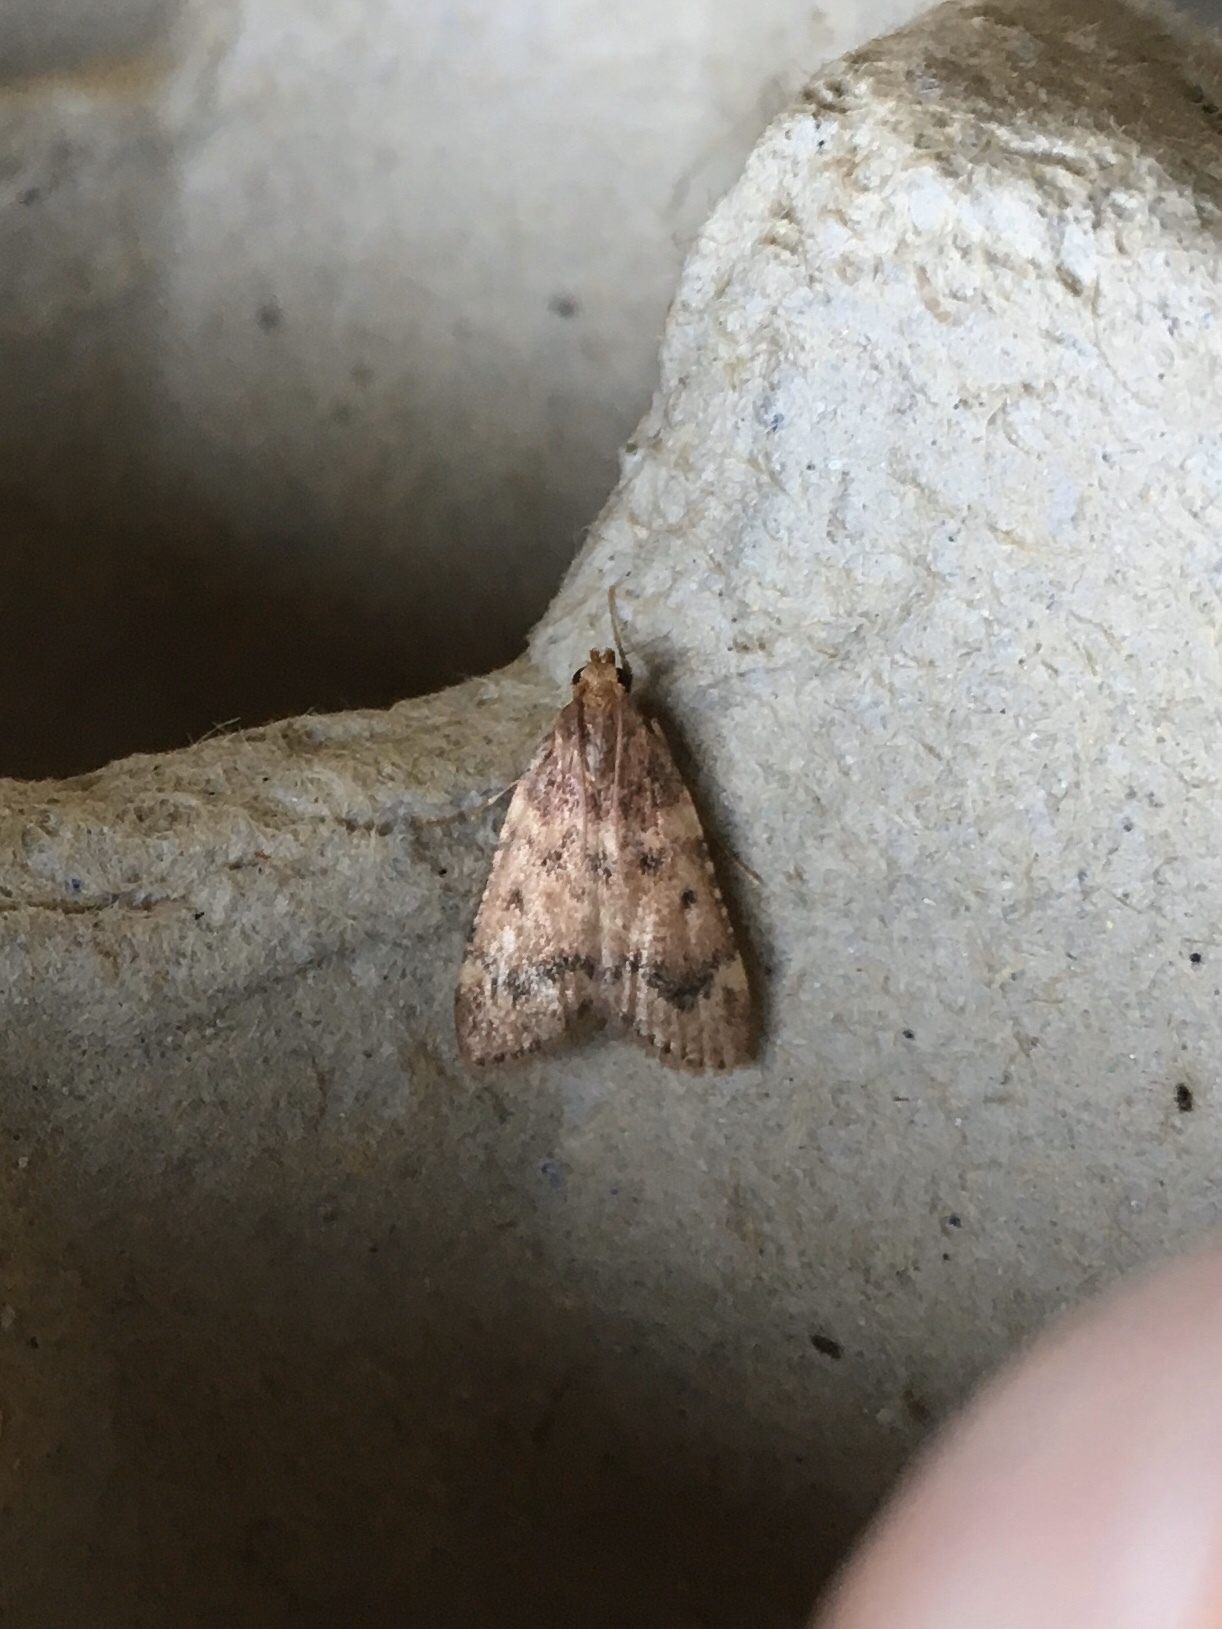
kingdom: Animalia
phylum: Arthropoda
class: Insecta
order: Lepidoptera
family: Pyralidae
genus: Aglossa
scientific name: Aglossa disciferalis
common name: Pink-masked pyralid moth
